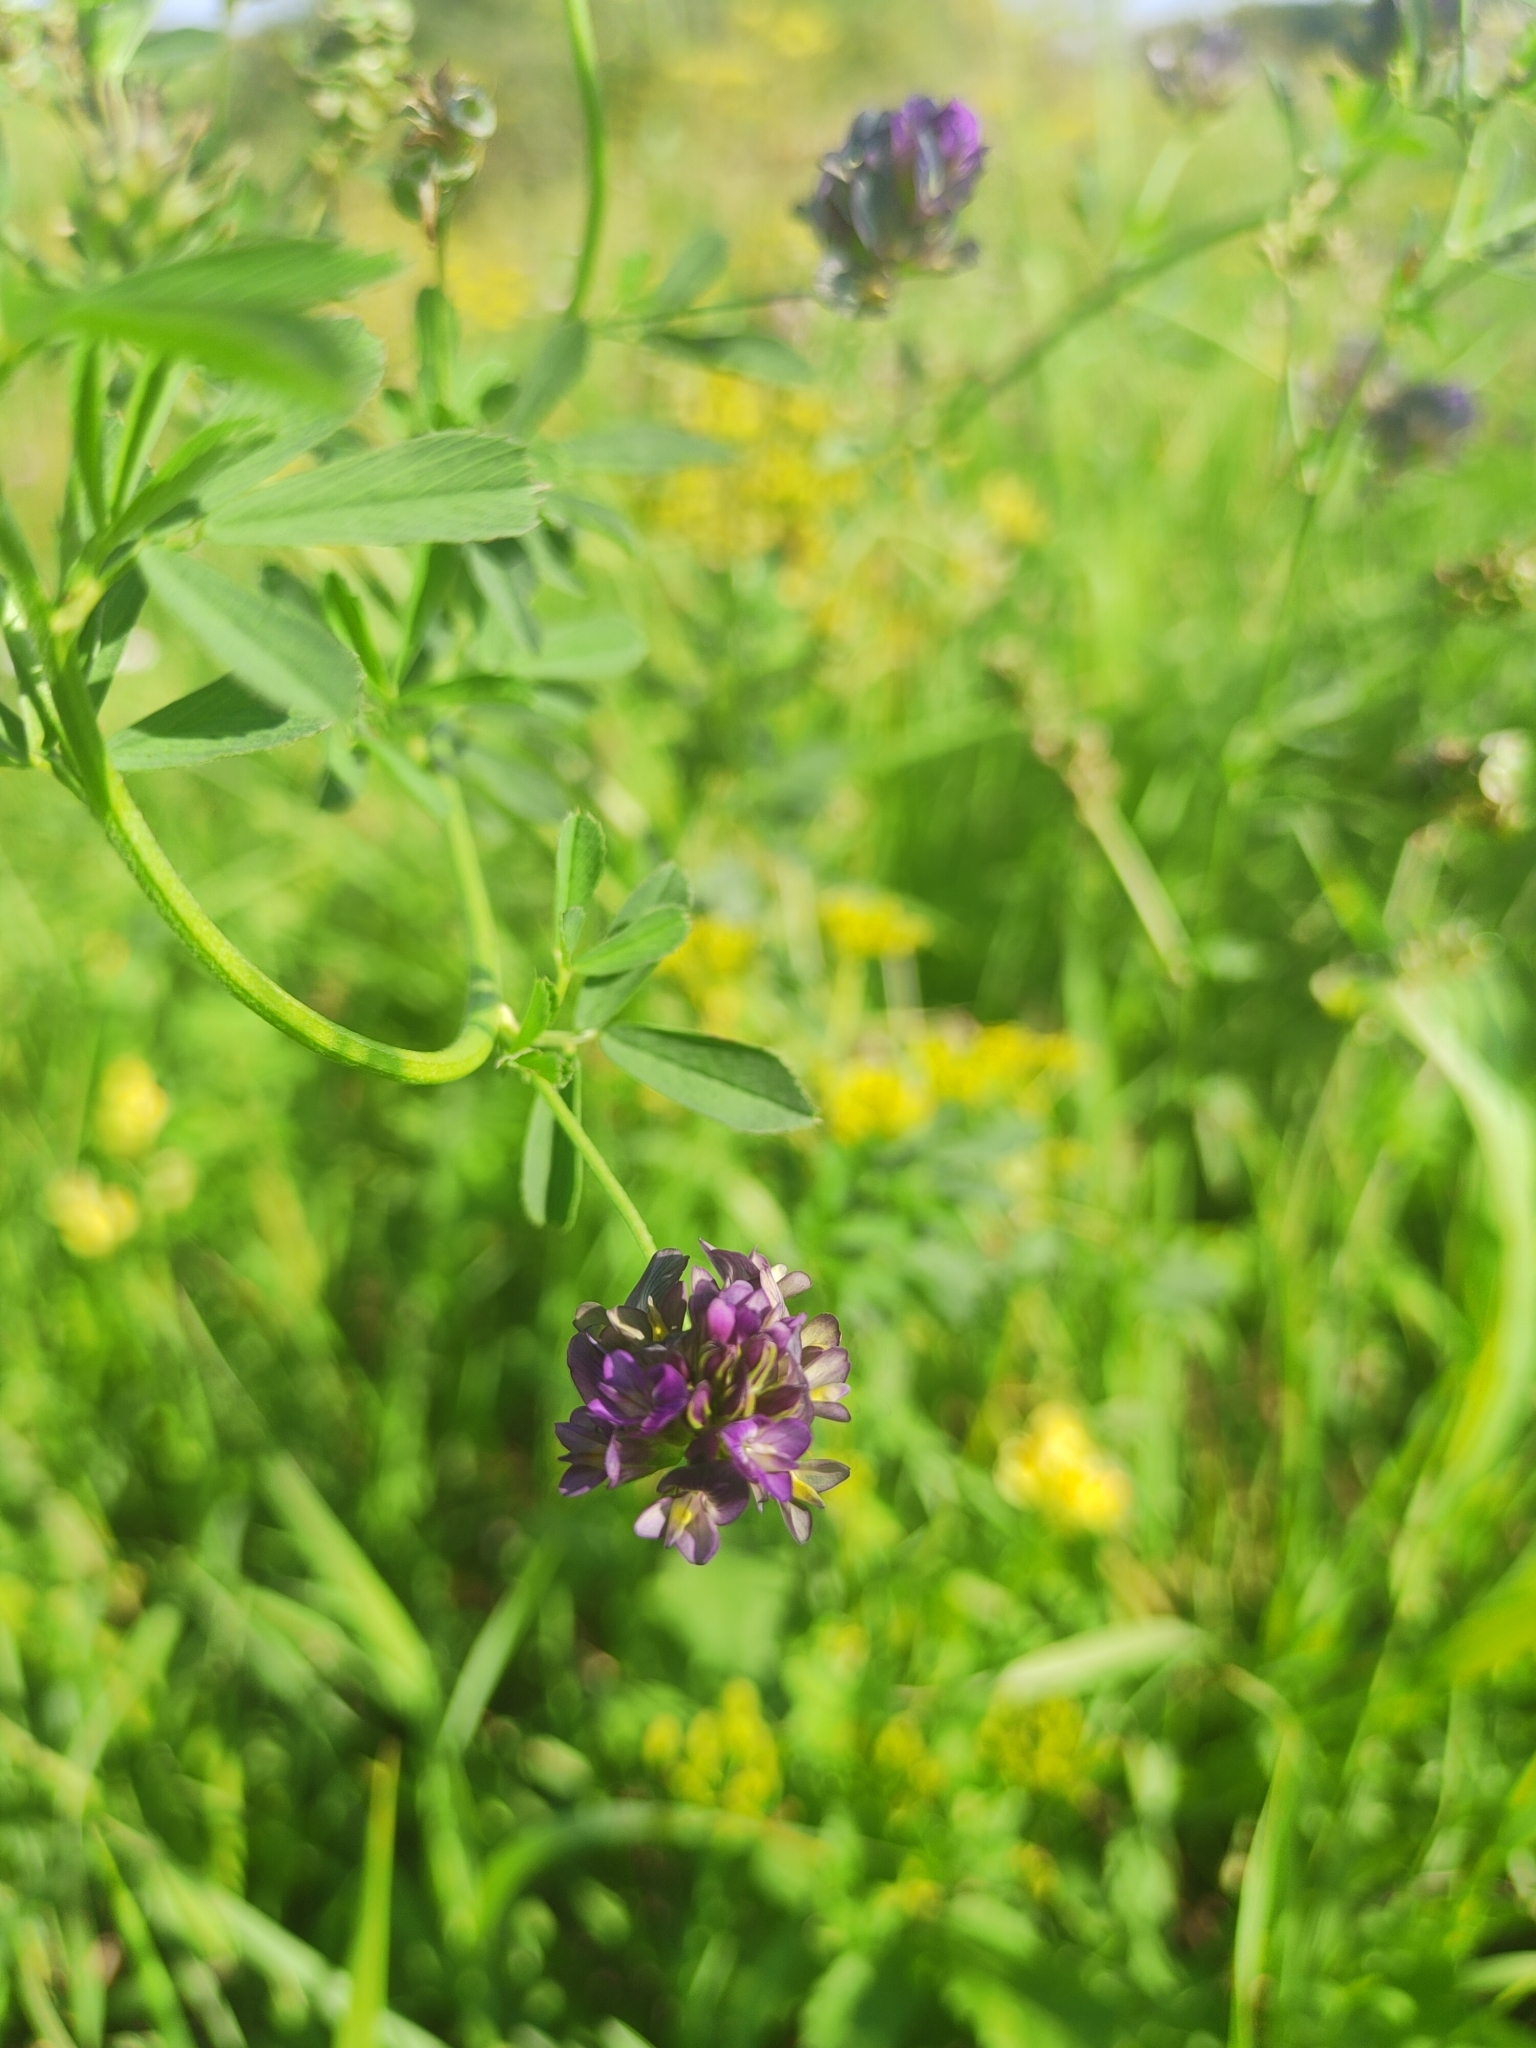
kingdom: Plantae
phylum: Tracheophyta
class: Magnoliopsida
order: Fabales
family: Fabaceae
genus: Medicago
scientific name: Medicago varia
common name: Sand lucerne
